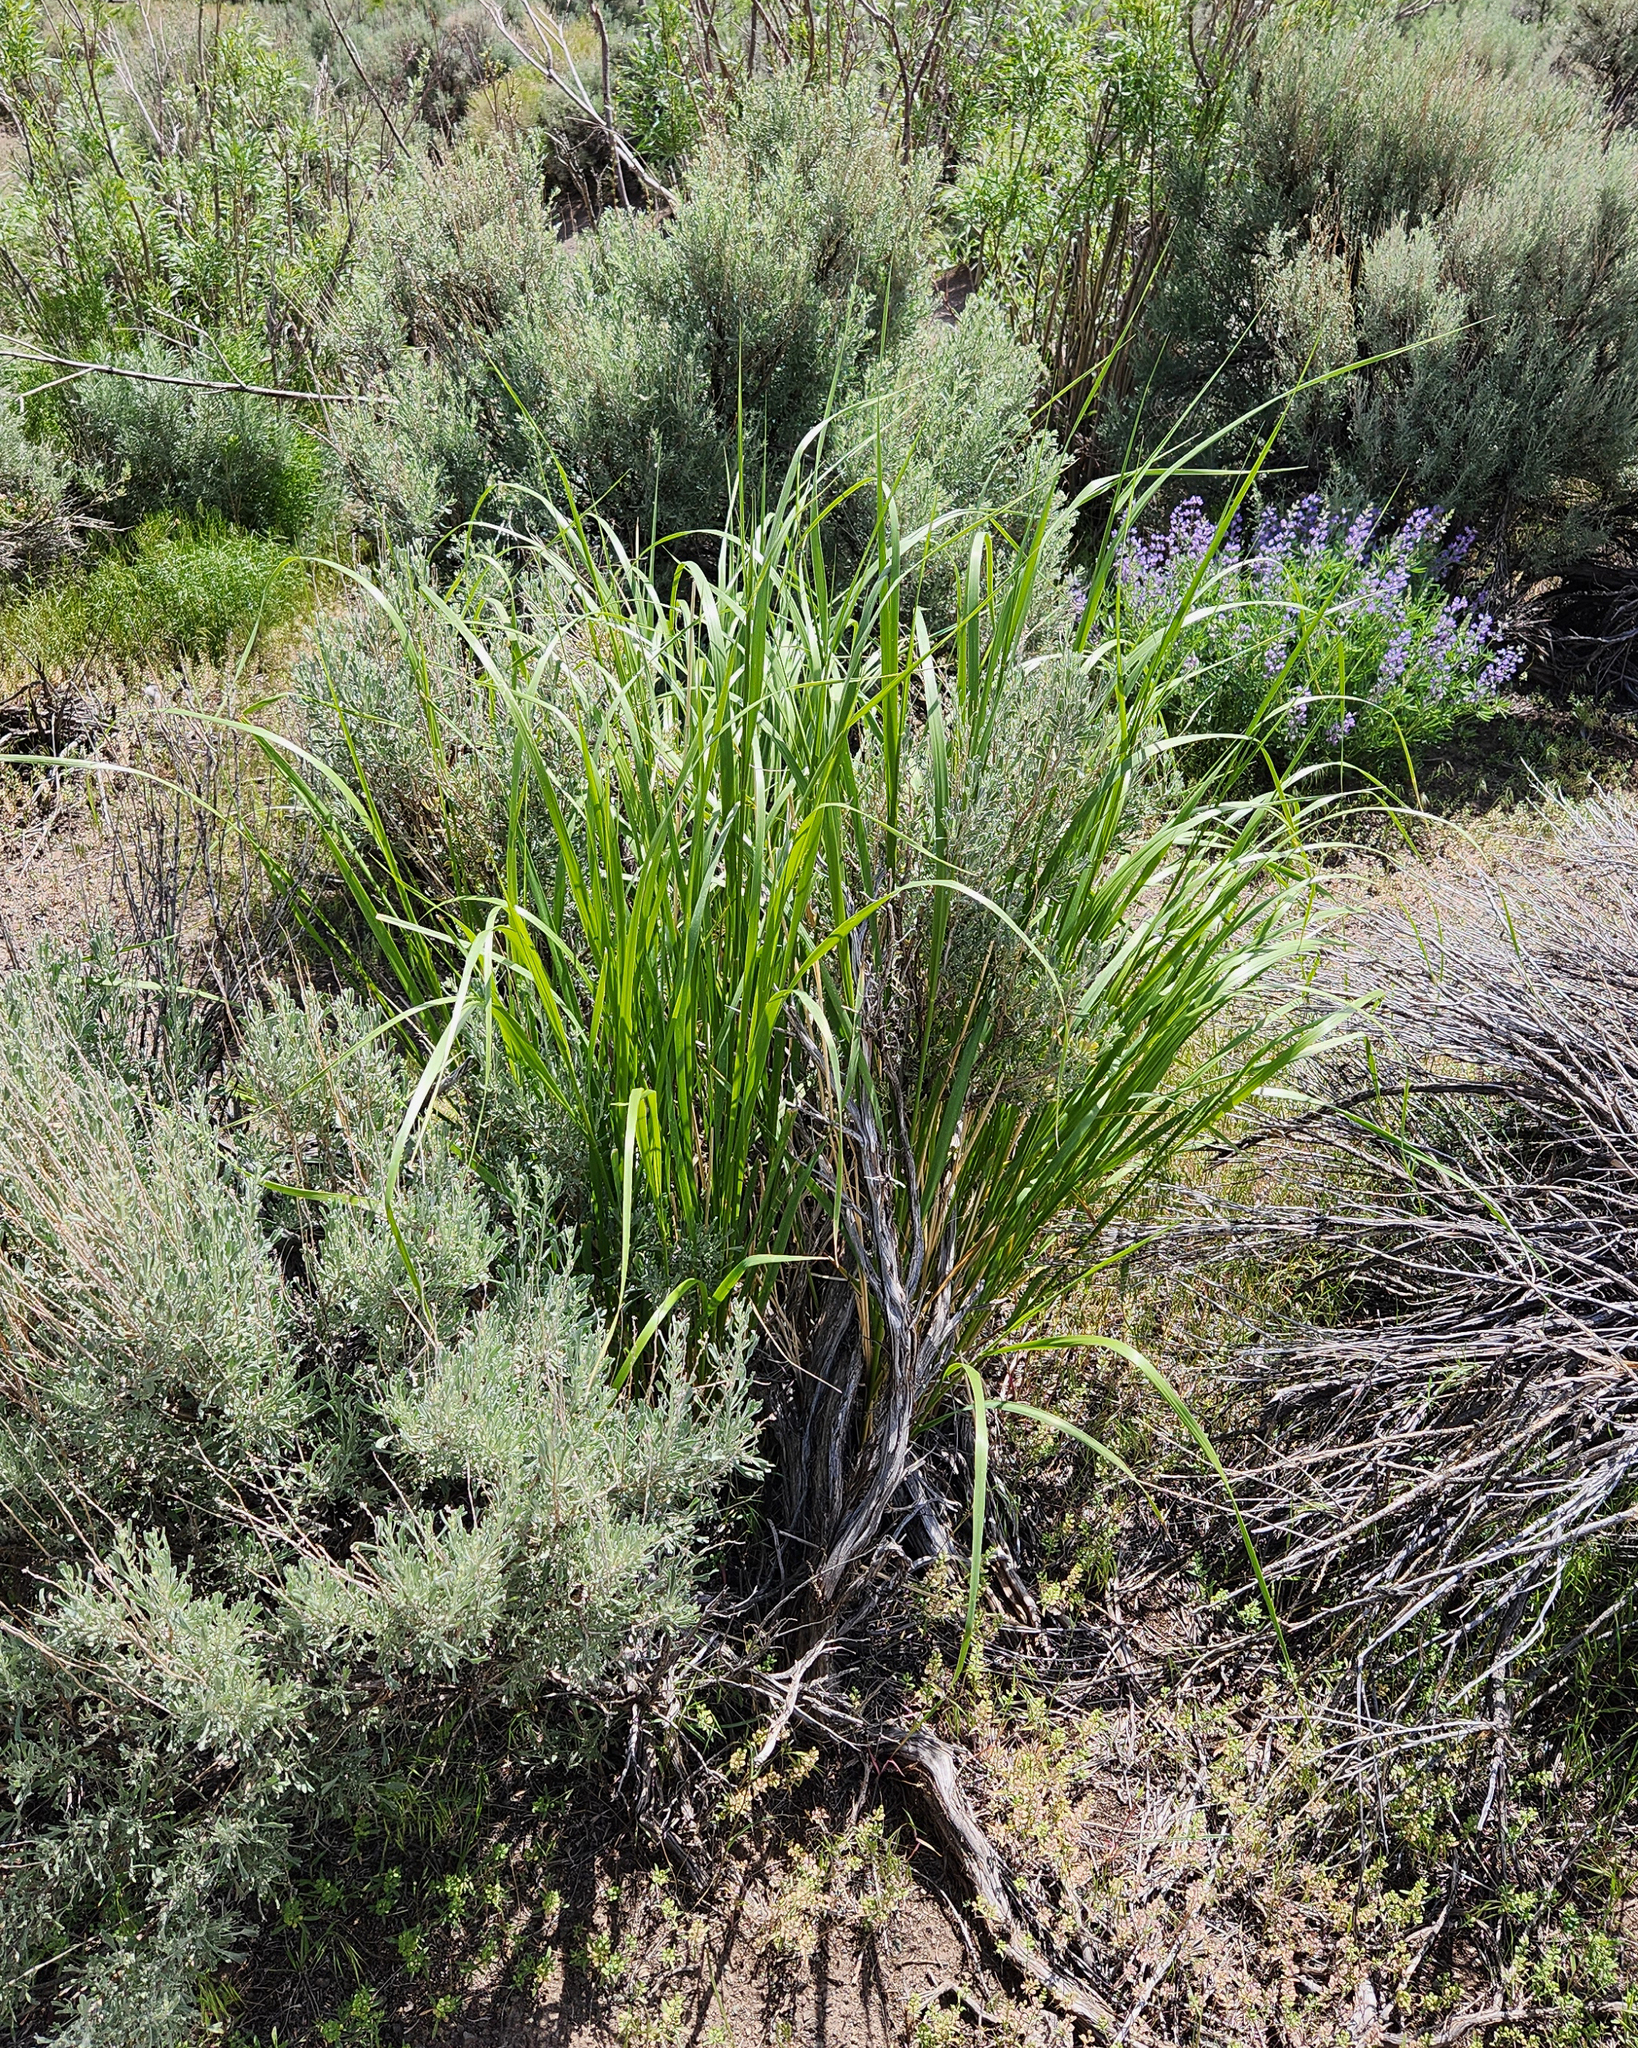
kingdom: Plantae
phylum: Tracheophyta
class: Liliopsida
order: Poales
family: Poaceae
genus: Leymus
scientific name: Leymus cinereus
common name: Basin wild rye
